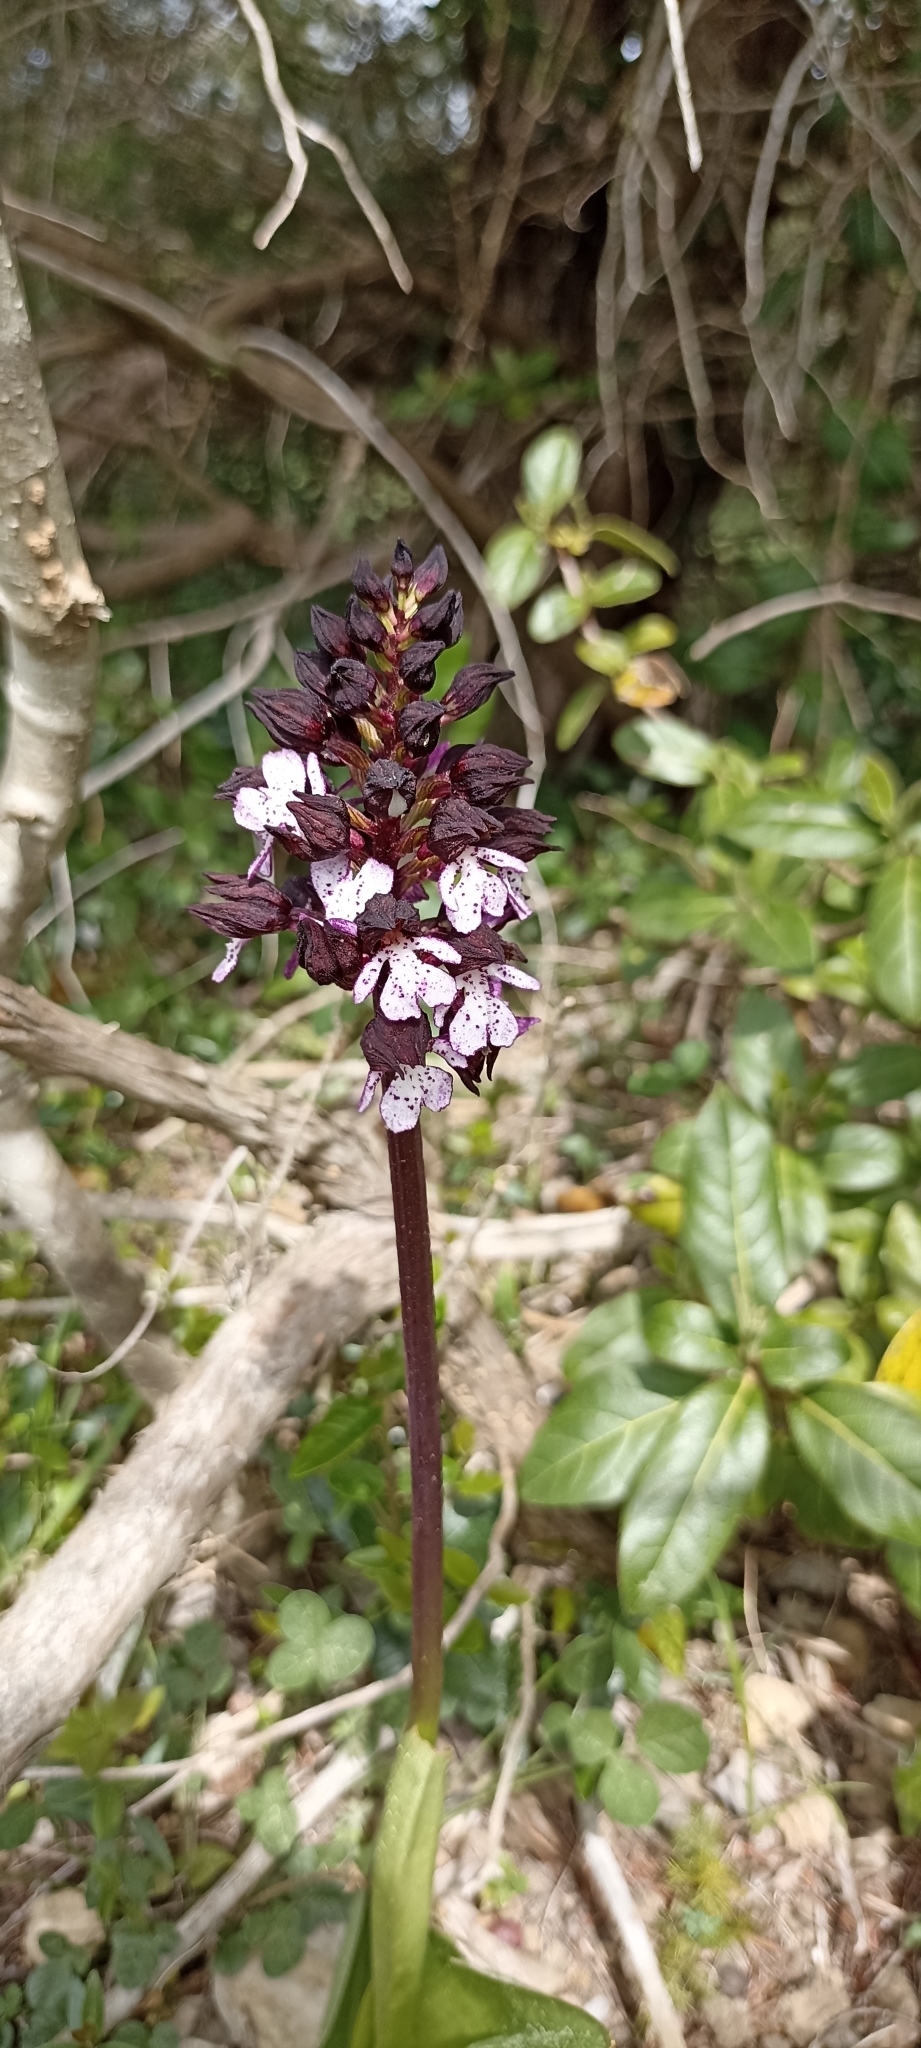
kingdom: Plantae
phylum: Tracheophyta
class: Liliopsida
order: Asparagales
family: Orchidaceae
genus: Orchis
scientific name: Orchis purpurea
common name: Lady orchid
